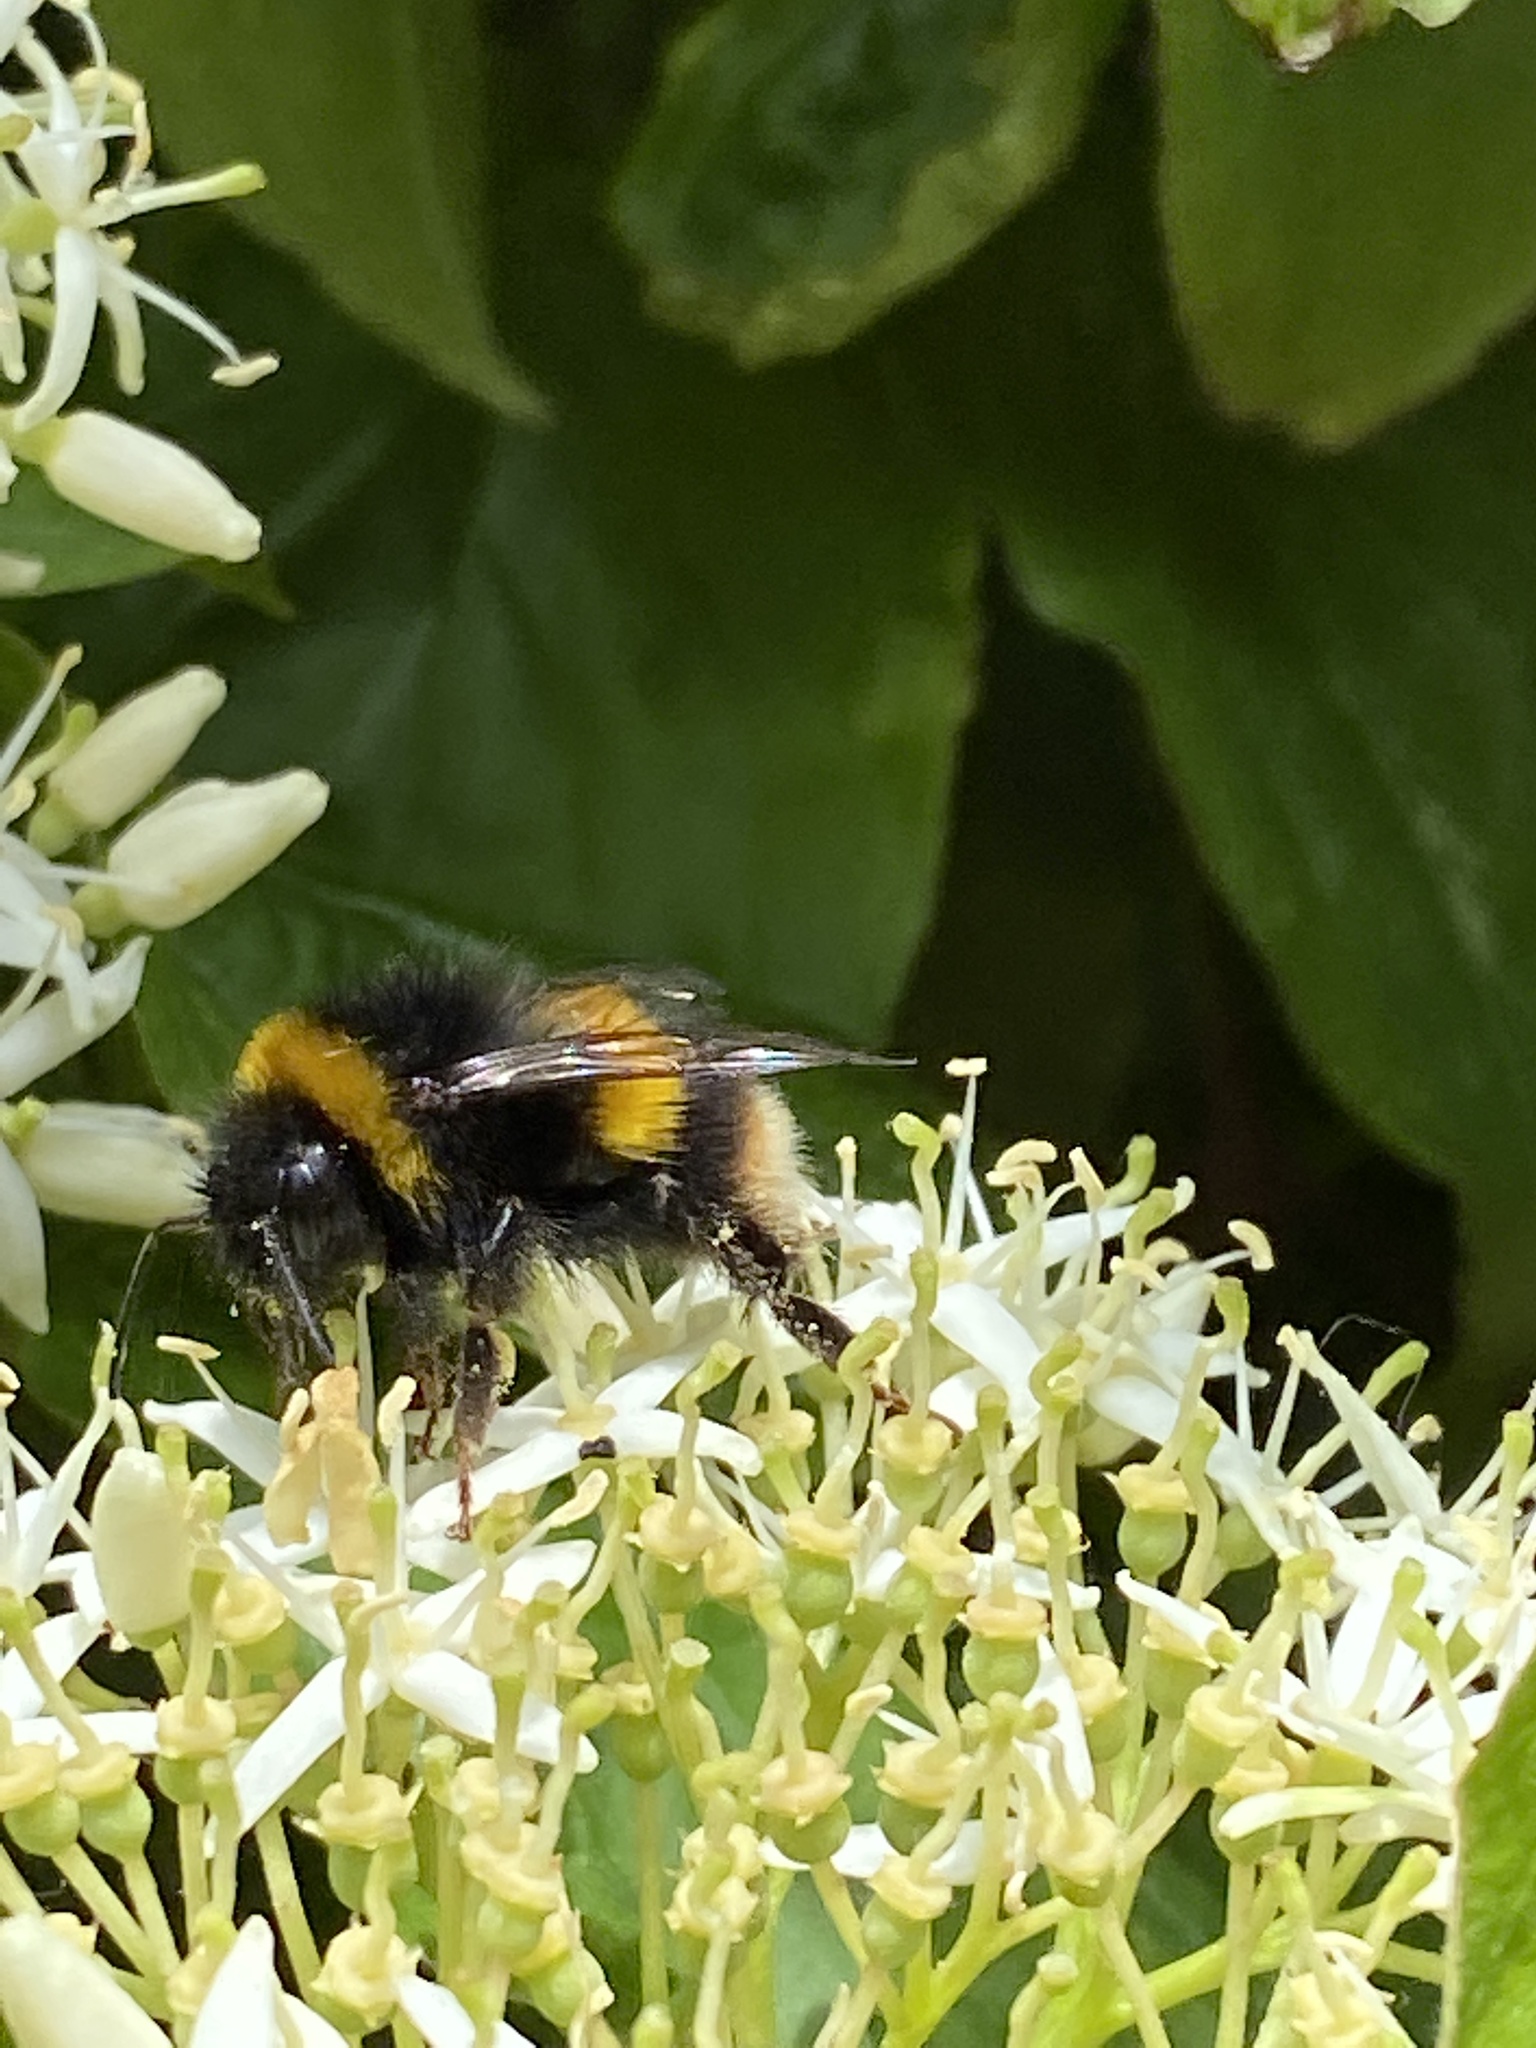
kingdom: Animalia
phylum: Arthropoda
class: Insecta
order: Hymenoptera
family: Apidae
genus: Bombus
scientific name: Bombus terrestris
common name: Buff-tailed bumblebee
